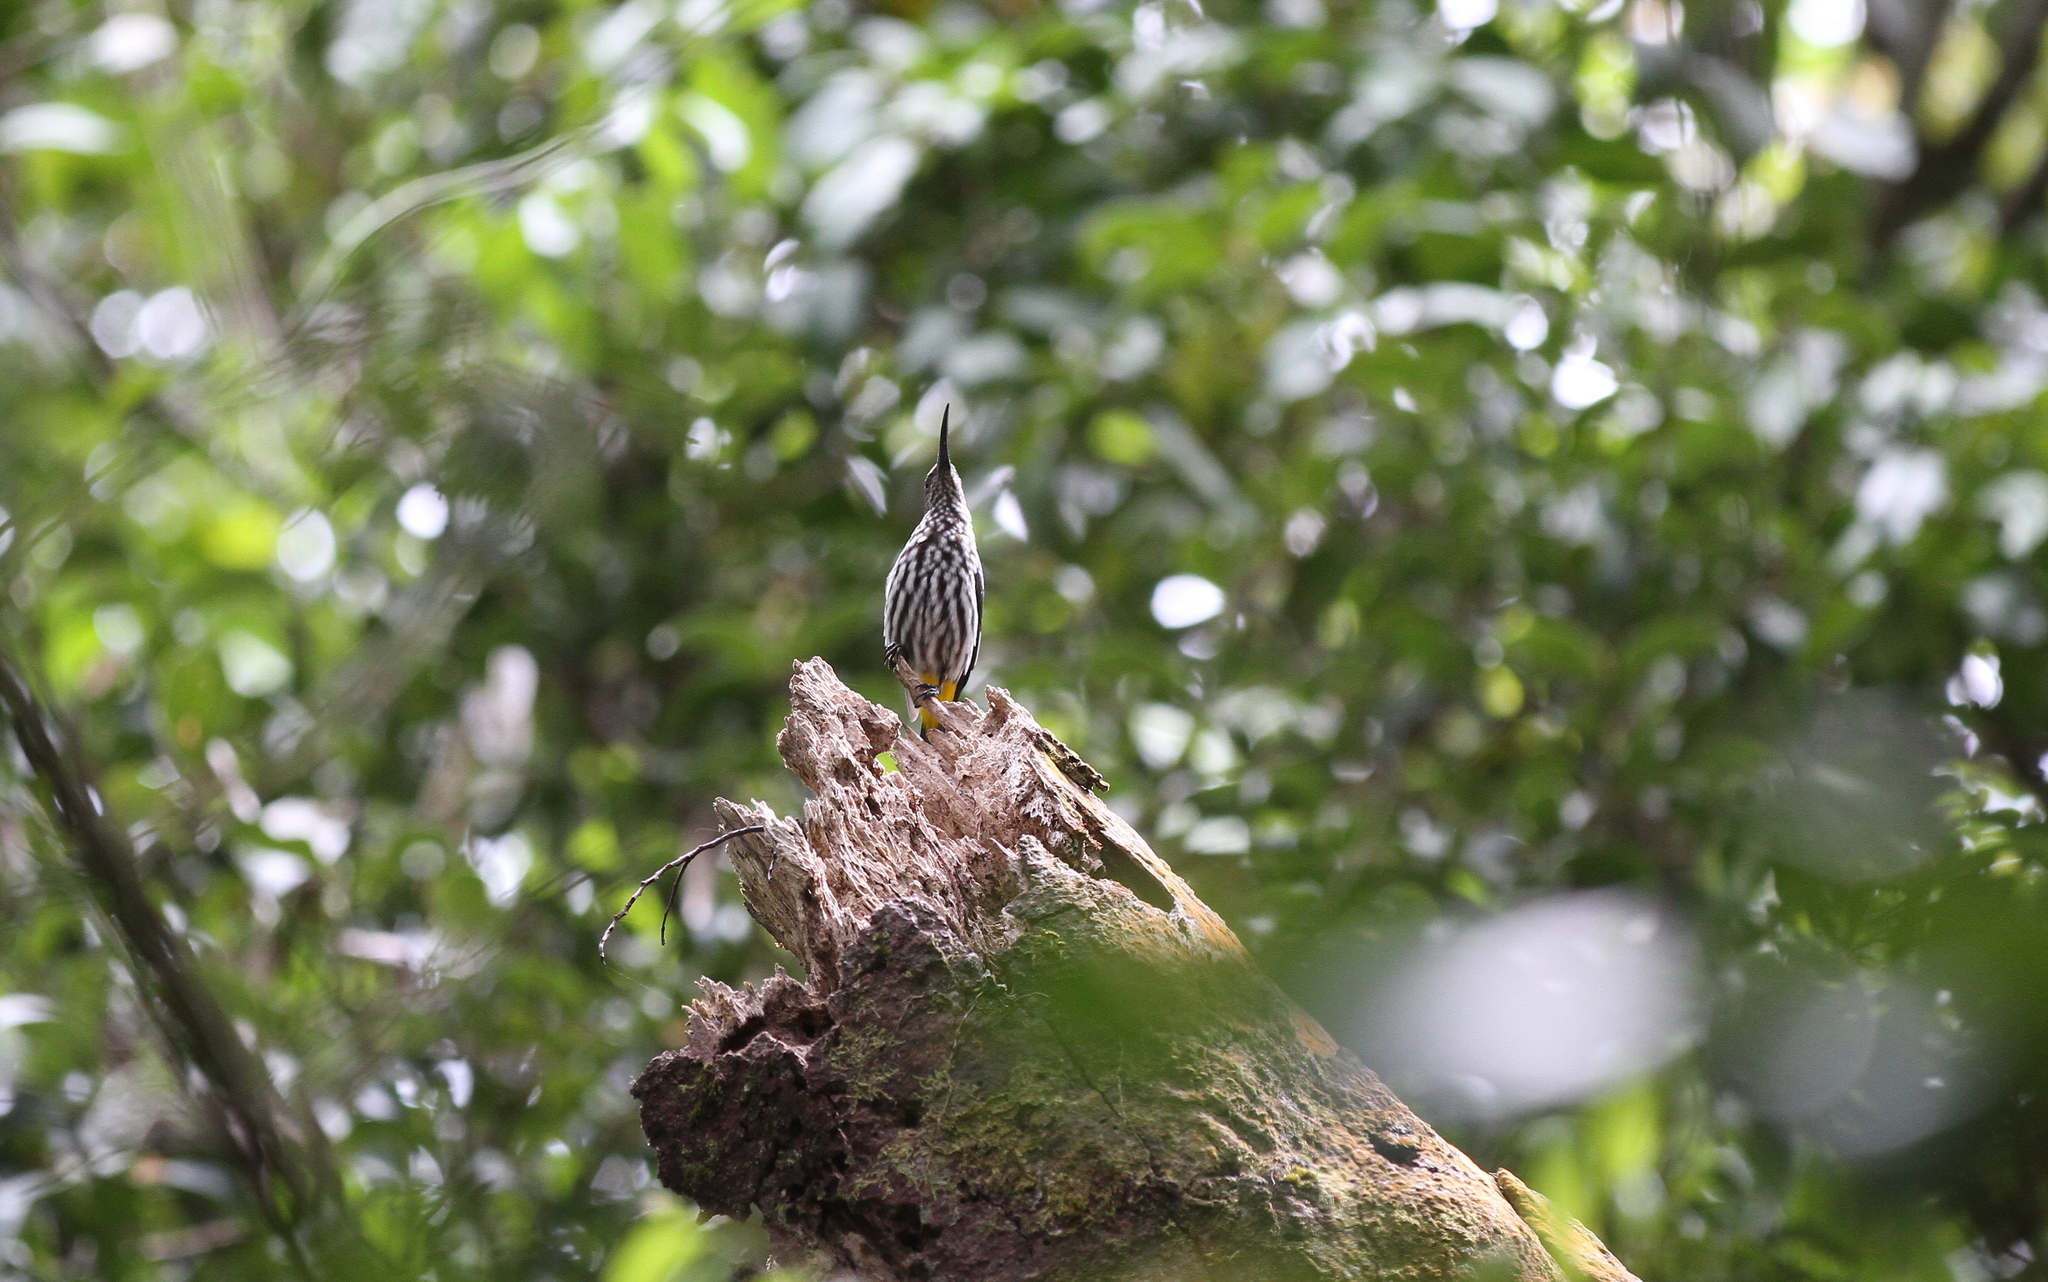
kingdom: Animalia
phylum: Chordata
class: Aves
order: Passeriformes
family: Nectariniidae
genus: Arachnothera
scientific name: Arachnothera juliae
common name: Whitehead's spiderhunter
